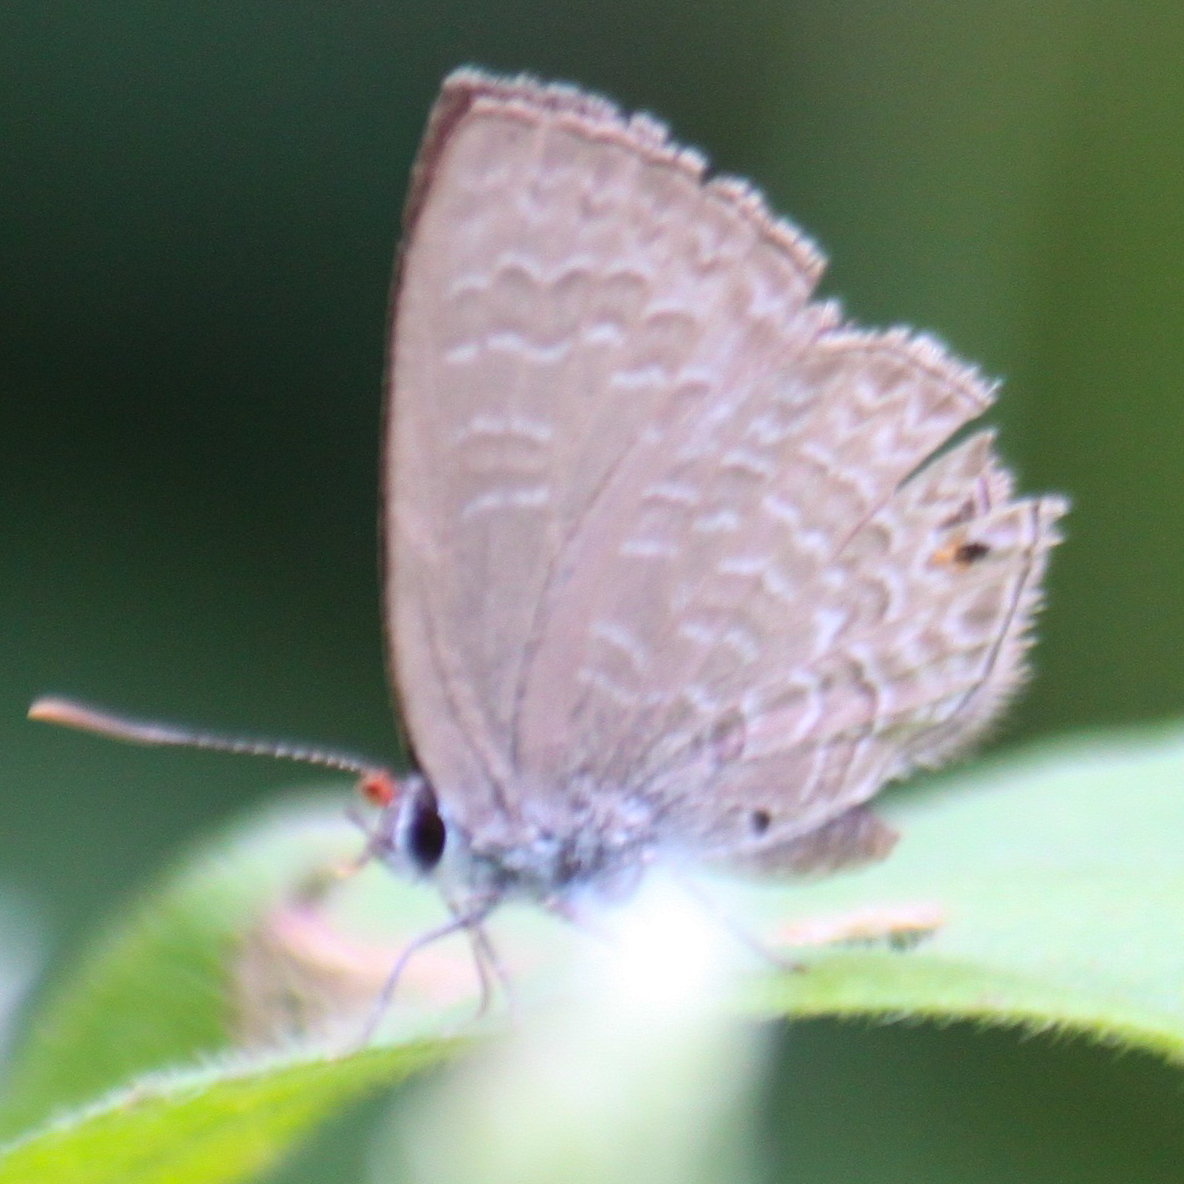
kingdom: Animalia
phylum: Arthropoda
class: Insecta
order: Lepidoptera
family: Lycaenidae
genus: Anthene
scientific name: Anthene emolus
